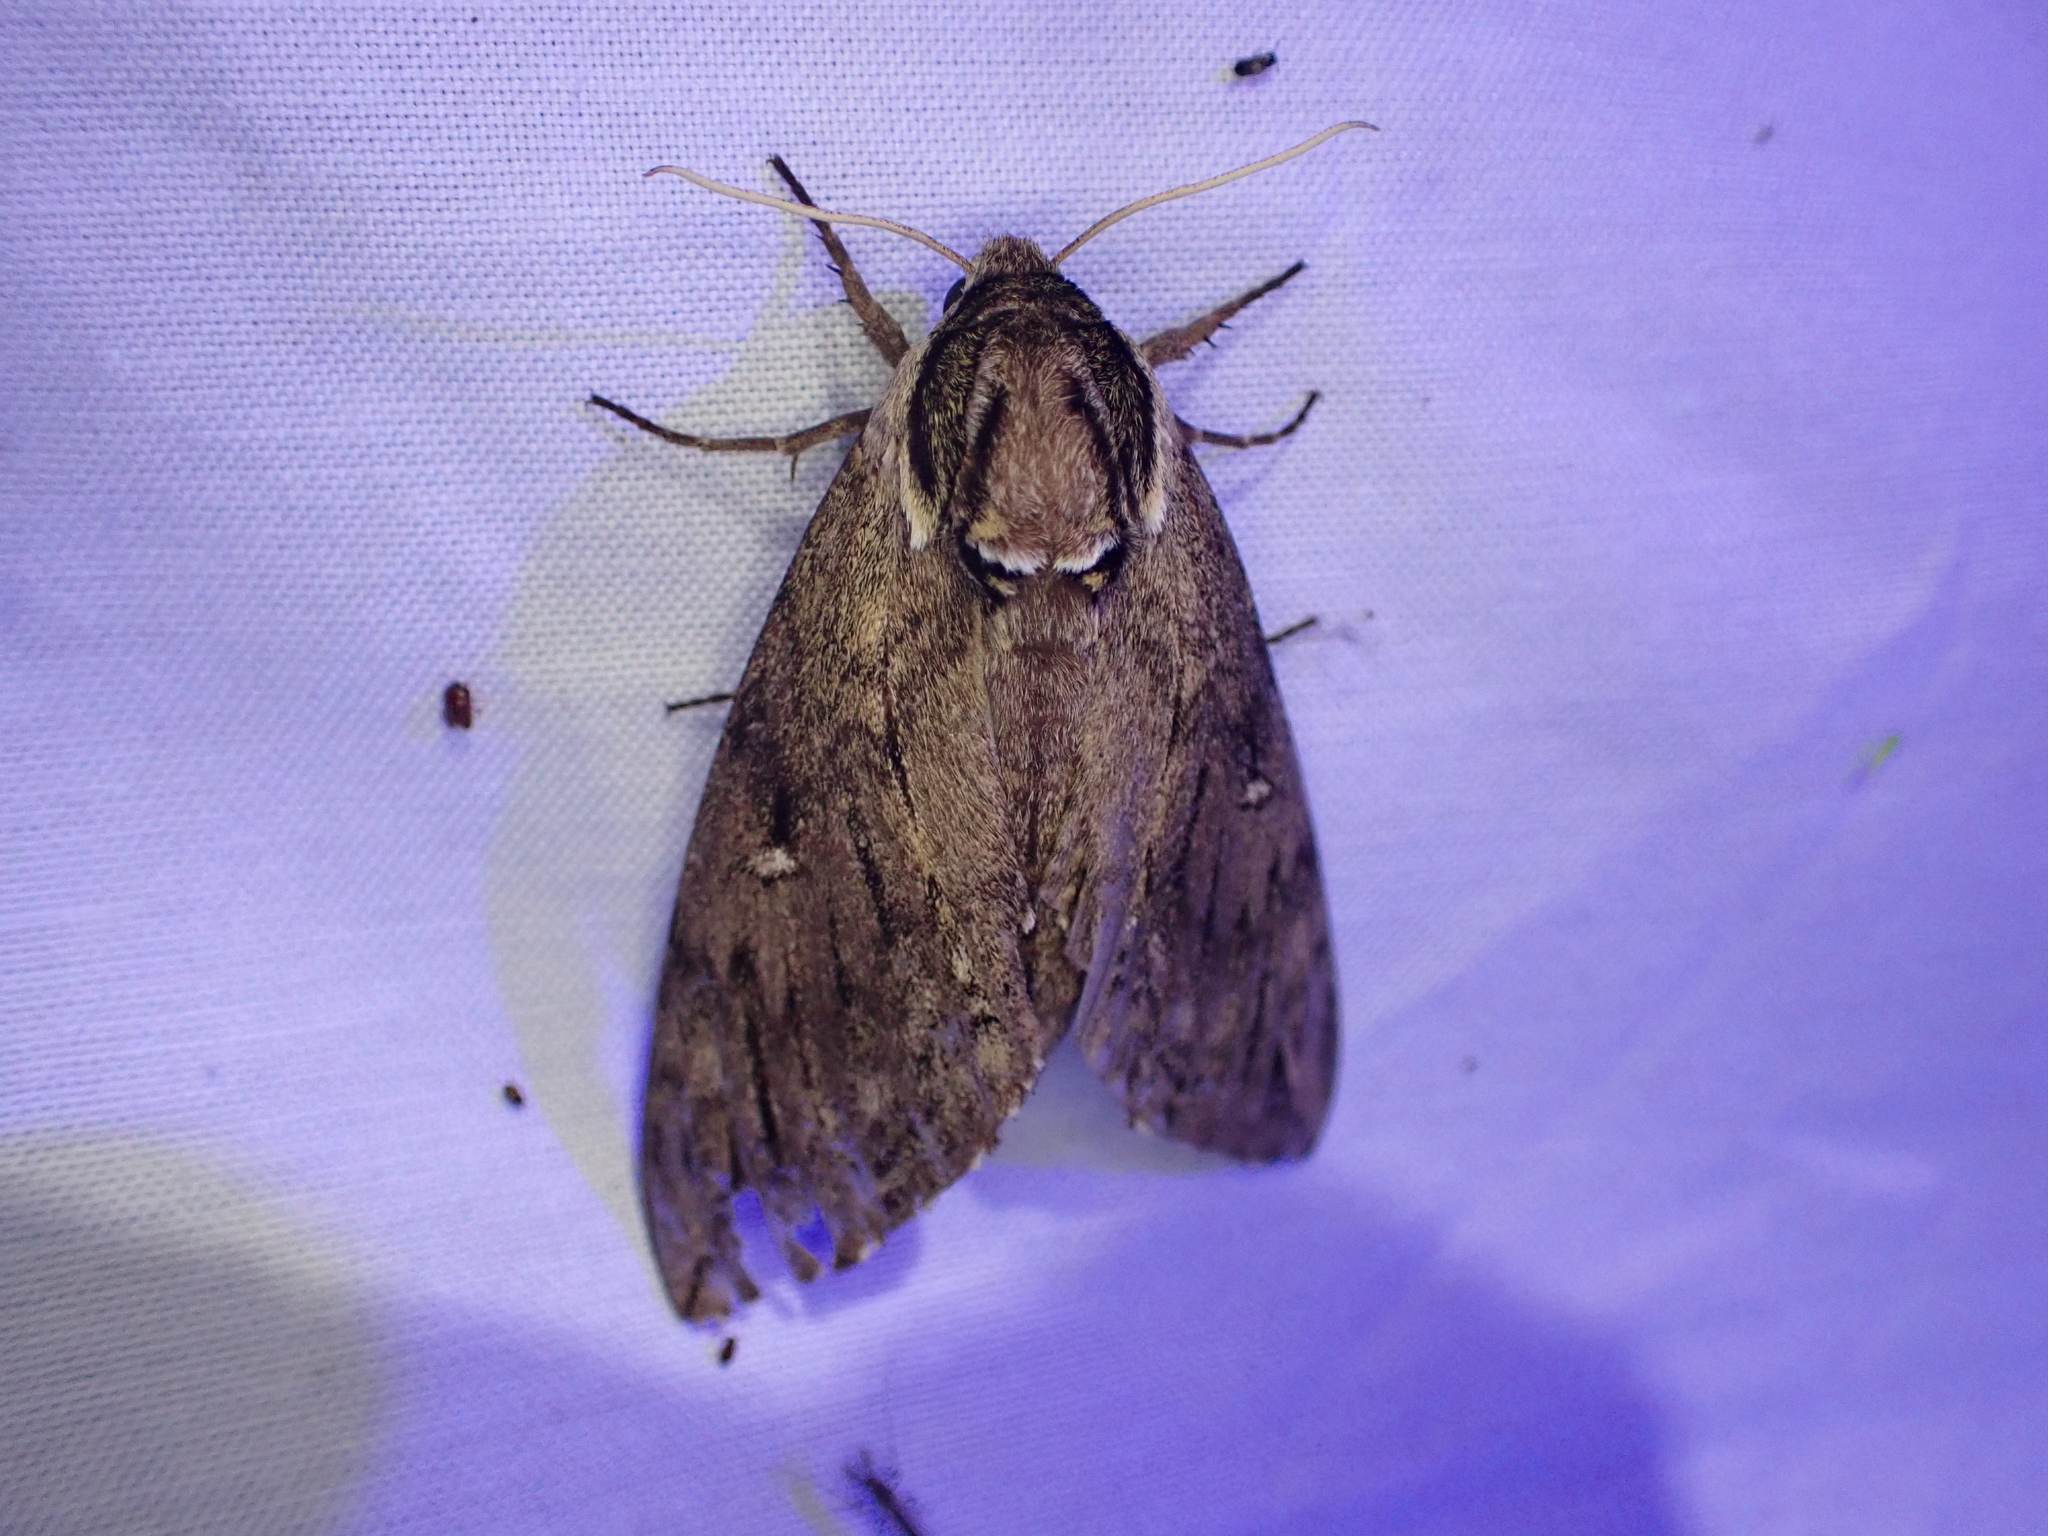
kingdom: Animalia
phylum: Arthropoda
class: Insecta
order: Lepidoptera
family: Sphingidae
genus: Ceratomia
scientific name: Ceratomia catalpae
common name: Catalpa hornworm
